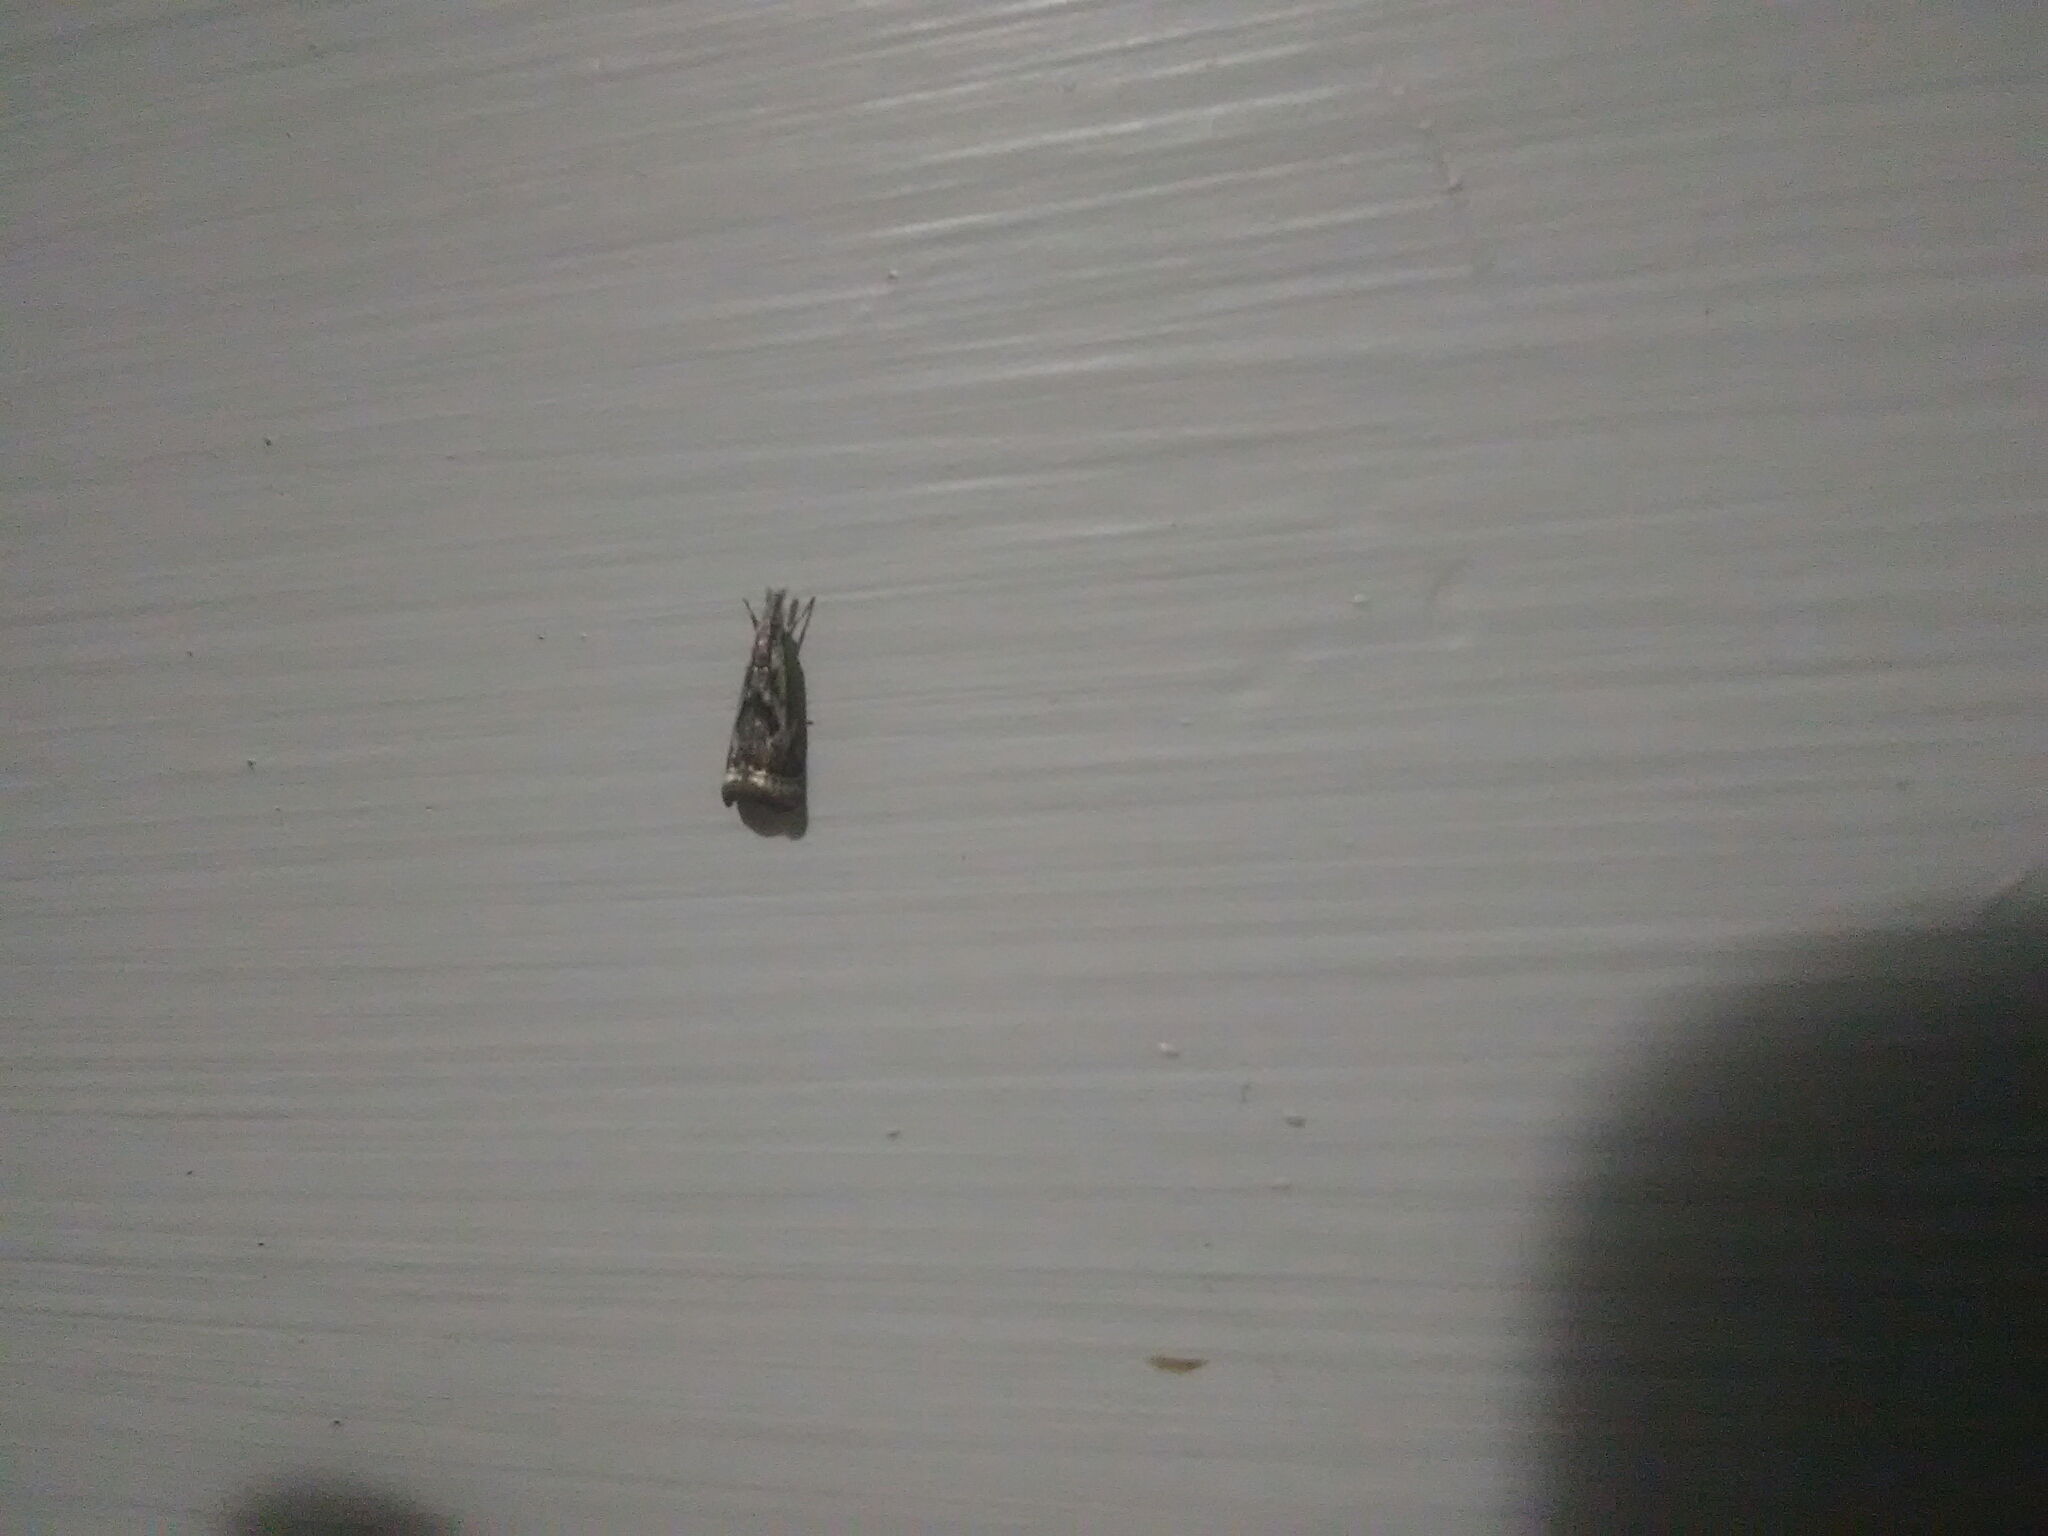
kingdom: Animalia
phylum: Arthropoda
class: Insecta
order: Lepidoptera
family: Crambidae
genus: Microcrambus
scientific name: Microcrambus elegans
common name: Elegant grass-veneer
